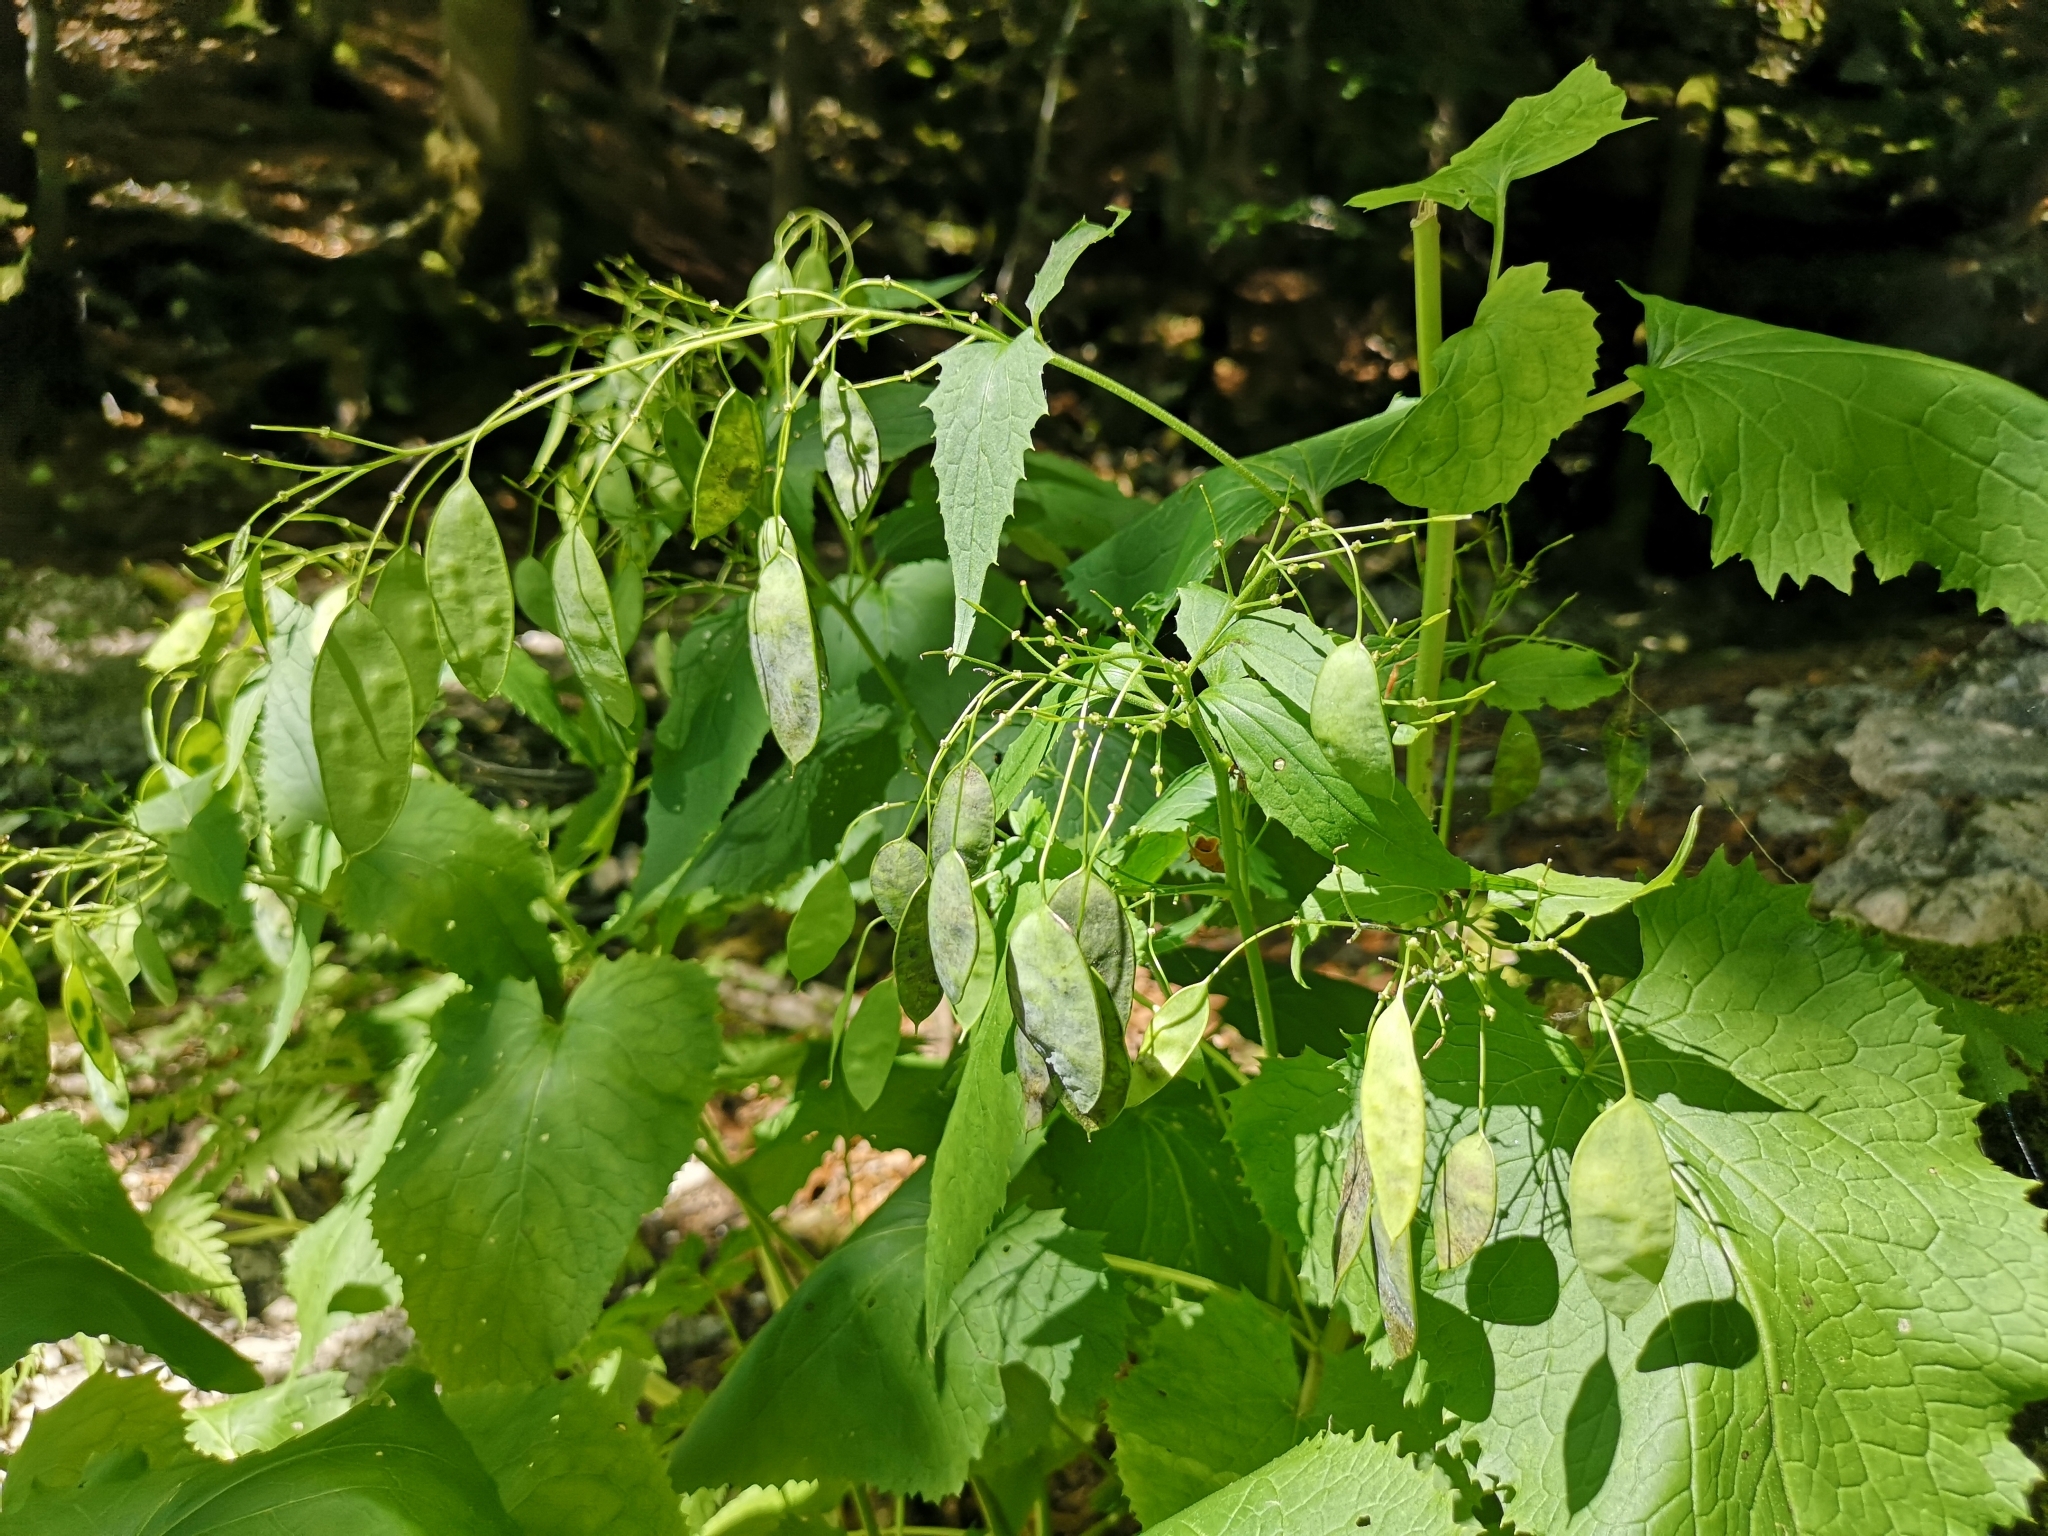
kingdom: Plantae
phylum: Tracheophyta
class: Magnoliopsida
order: Brassicales
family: Brassicaceae
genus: Lunaria
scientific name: Lunaria rediviva
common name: Perennial honesty
